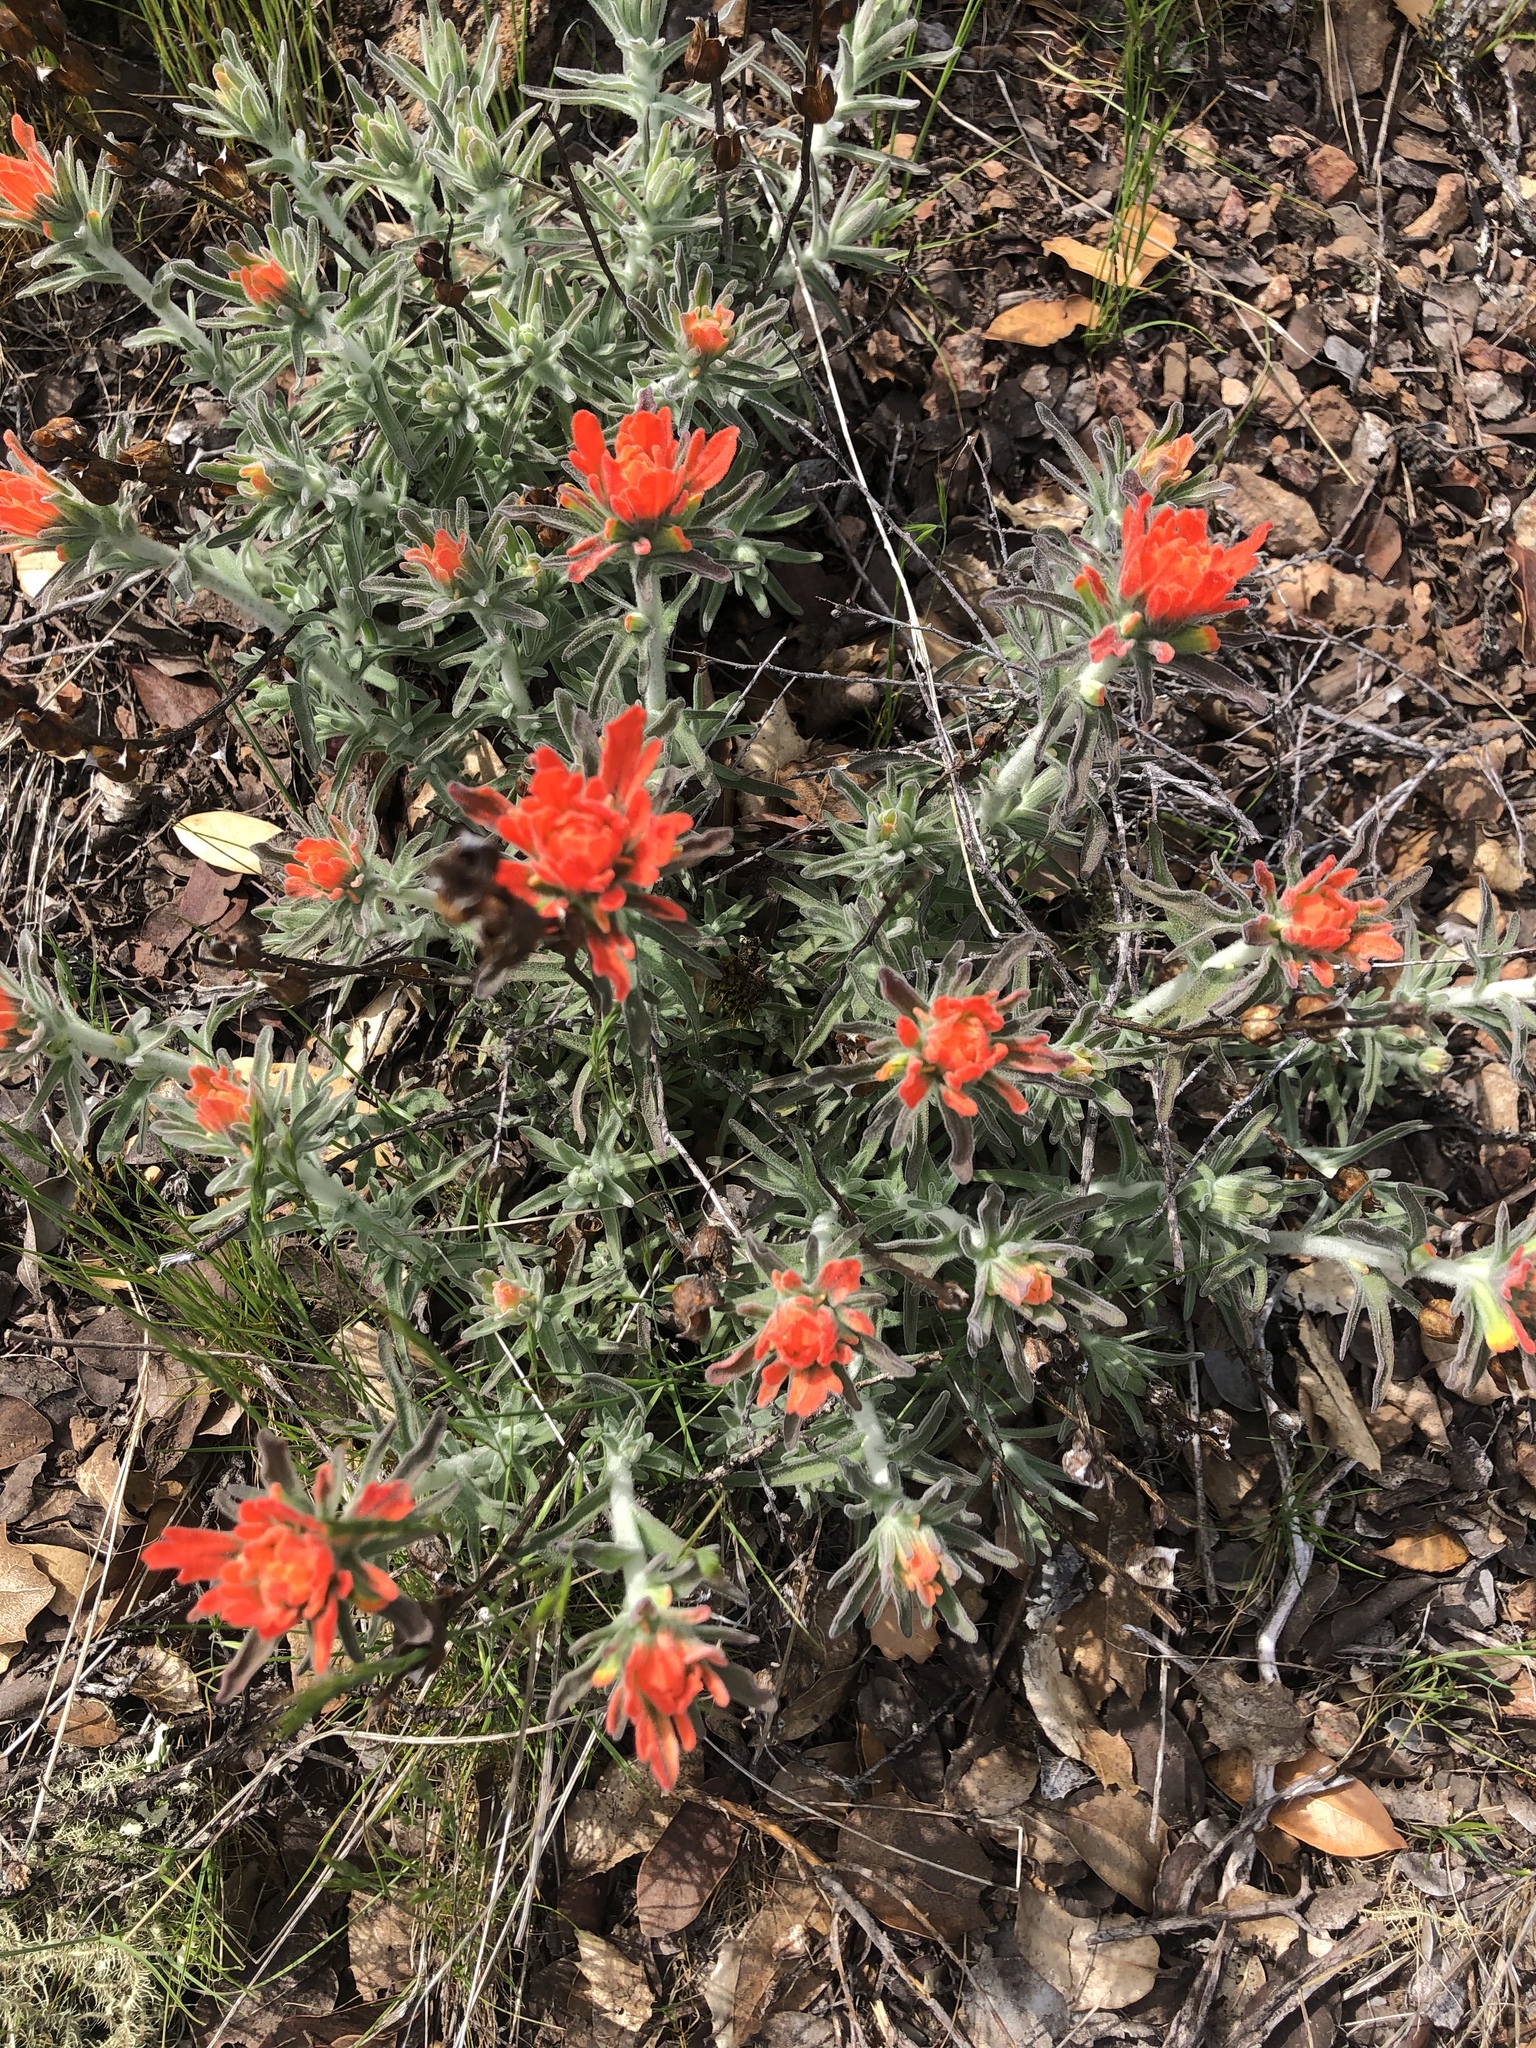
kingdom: Plantae
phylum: Tracheophyta
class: Magnoliopsida
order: Lamiales
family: Orobanchaceae
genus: Castilleja
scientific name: Castilleja foliolosa
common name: Woolly indian paintbrush
